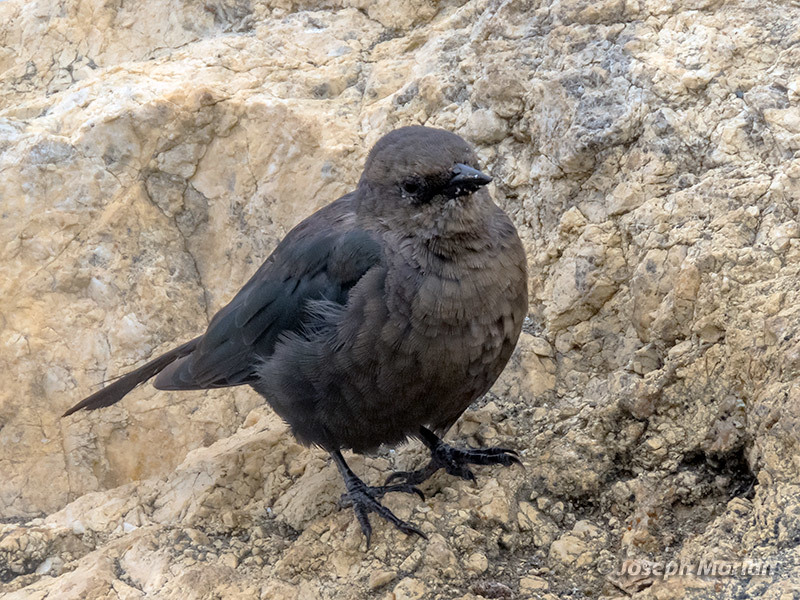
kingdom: Animalia
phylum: Chordata
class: Aves
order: Passeriformes
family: Icteridae
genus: Euphagus
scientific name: Euphagus cyanocephalus
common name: Brewer's blackbird
